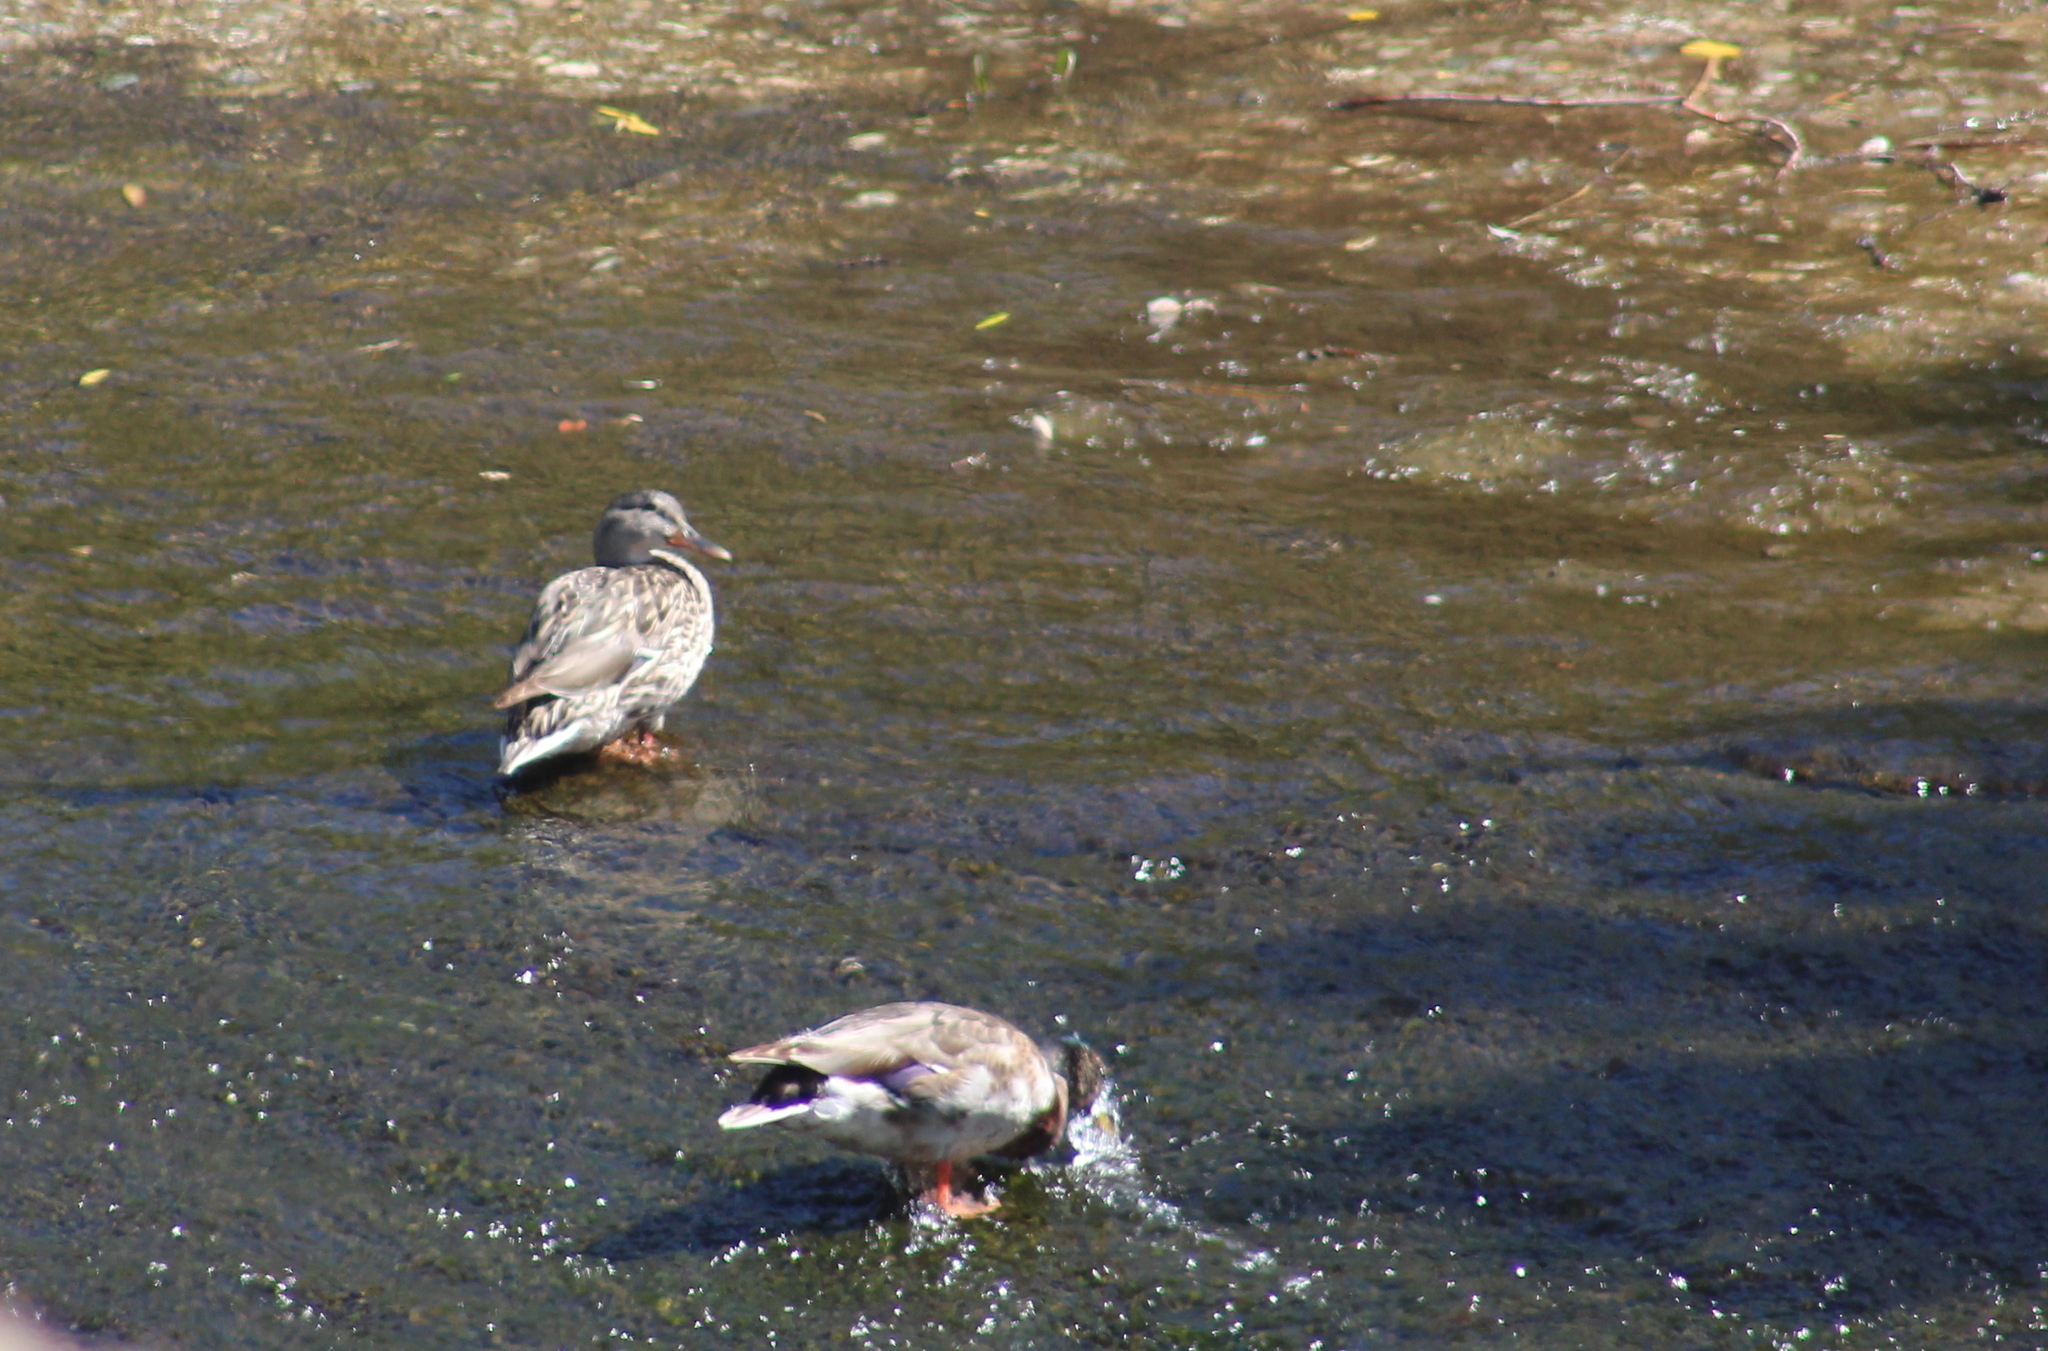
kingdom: Animalia
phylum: Chordata
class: Aves
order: Anseriformes
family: Anatidae
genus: Anas
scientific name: Anas platyrhynchos
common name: Mallard
